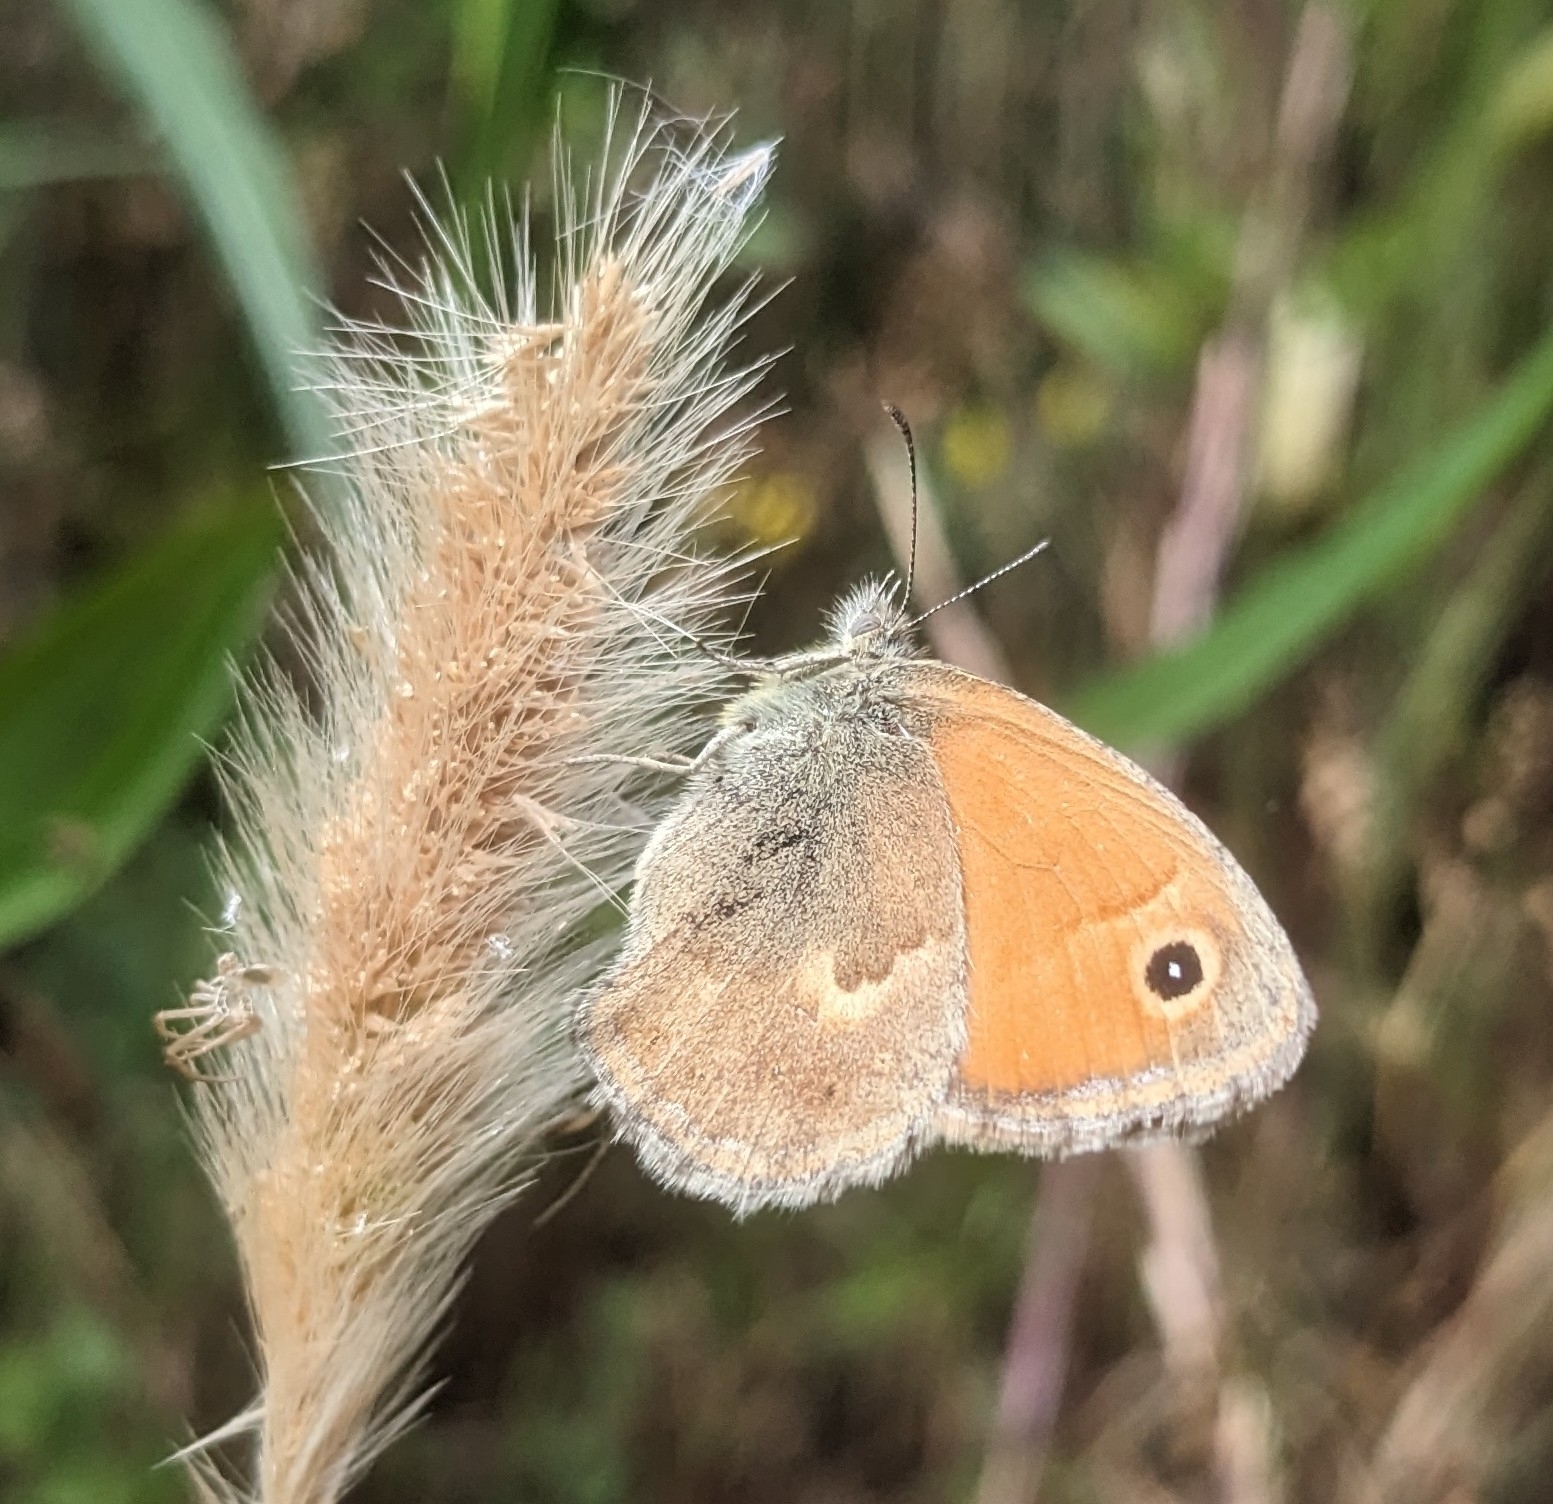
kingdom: Animalia
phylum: Arthropoda
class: Insecta
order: Lepidoptera
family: Nymphalidae
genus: Coenonympha
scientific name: Coenonympha pamphilus
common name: Small heath
